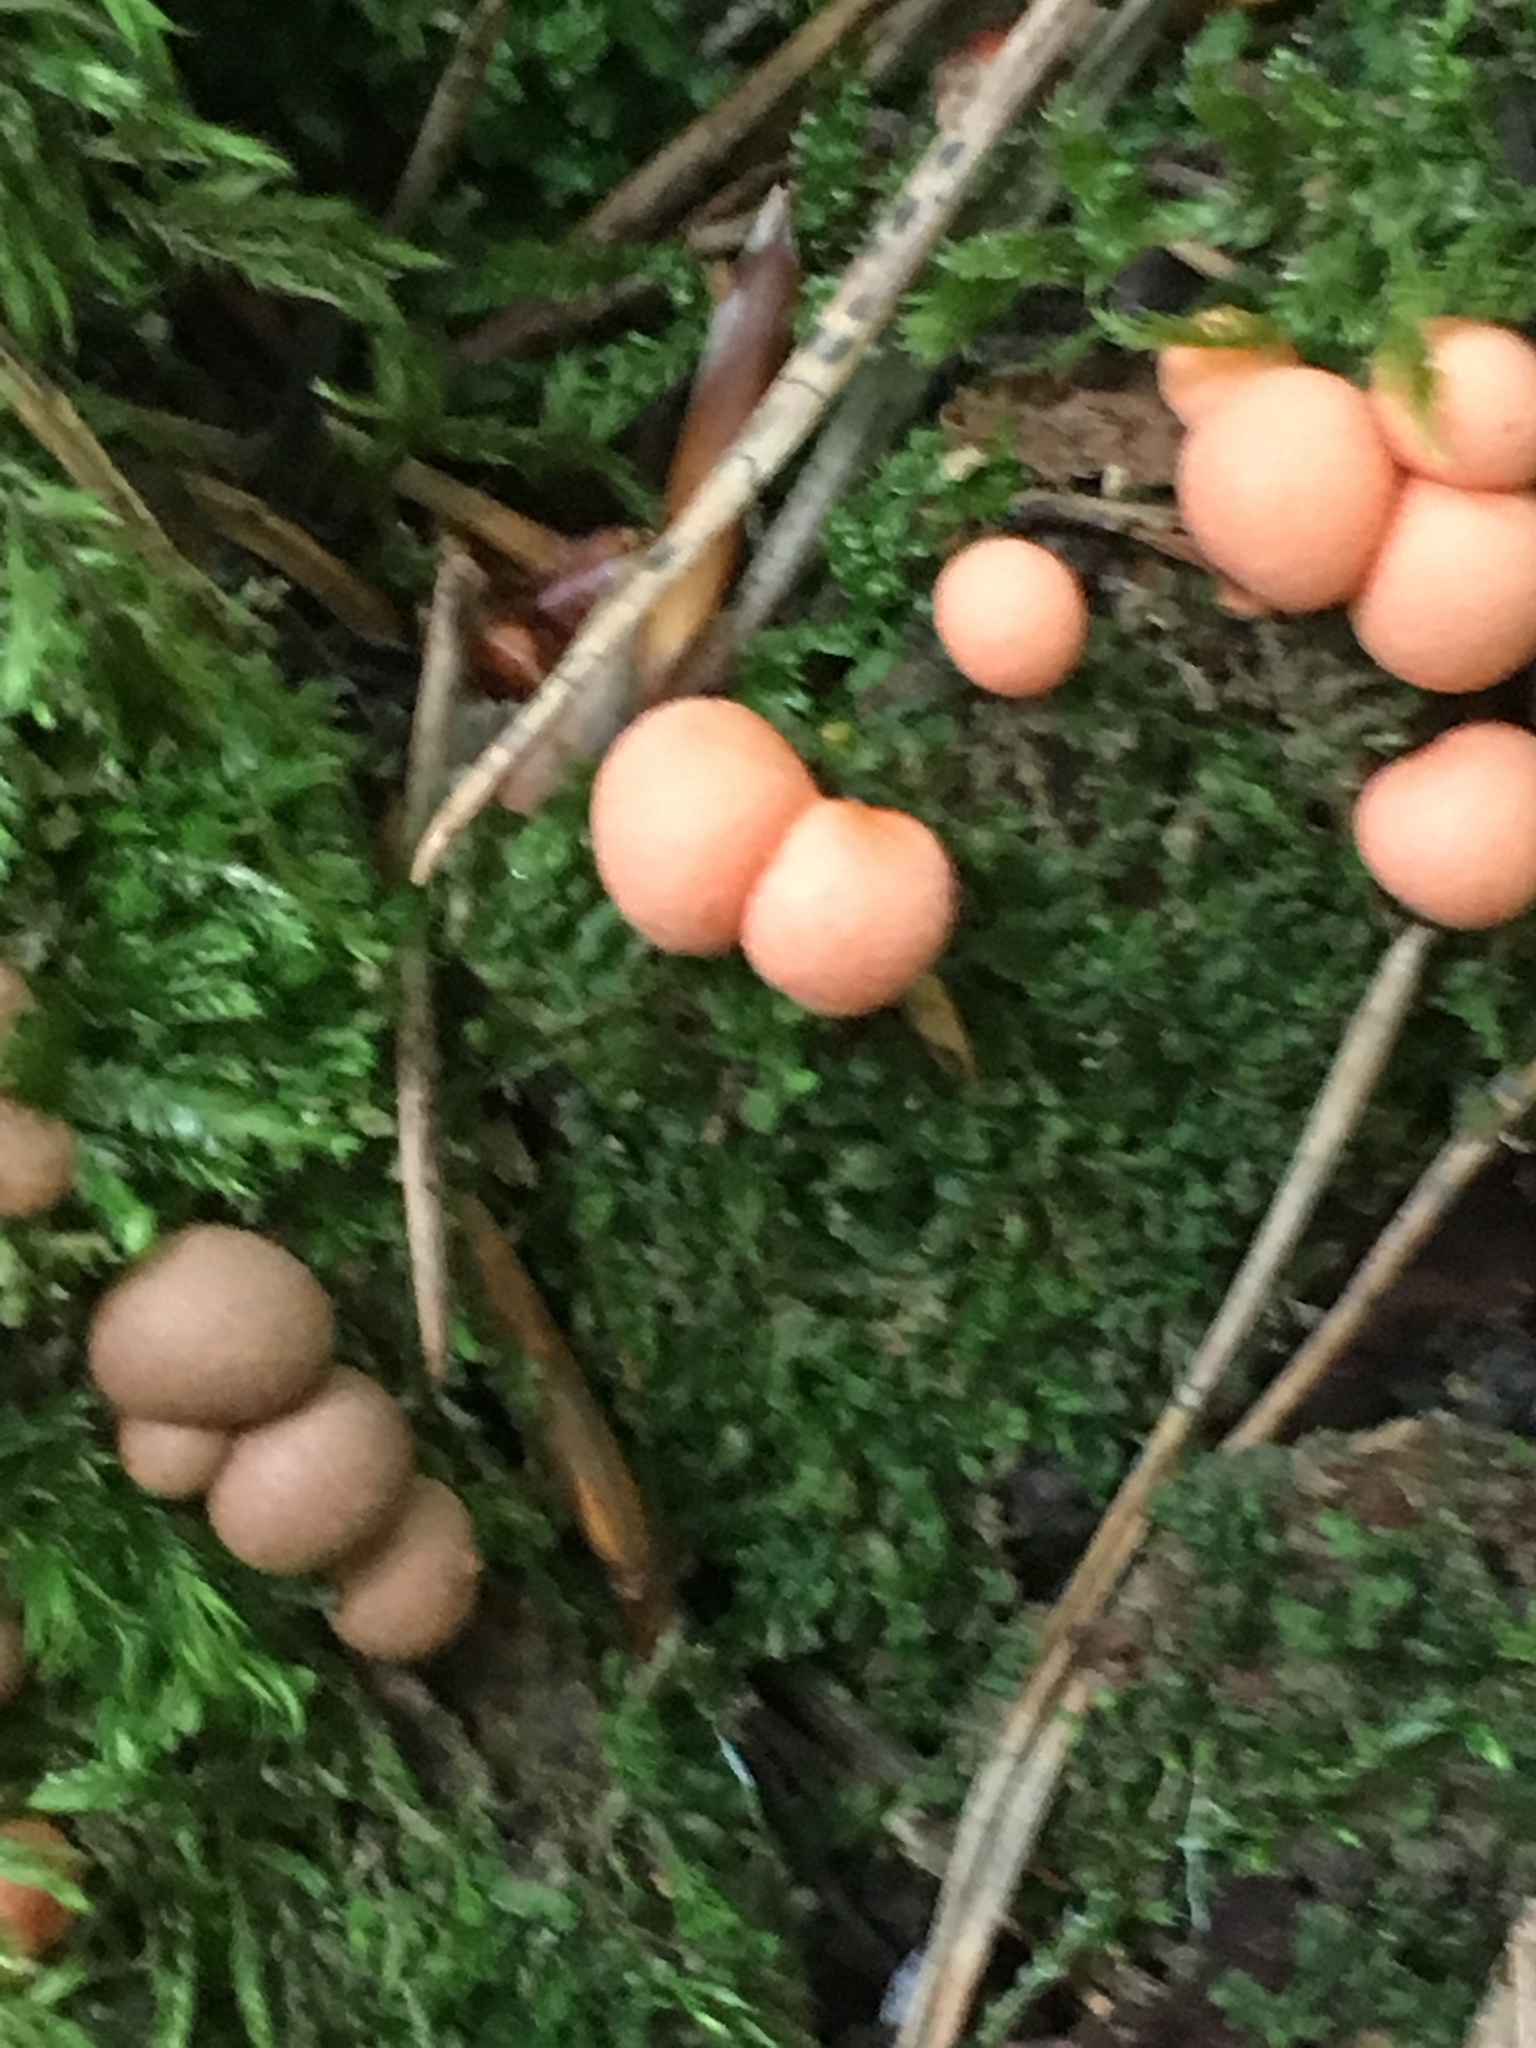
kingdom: Protozoa
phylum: Mycetozoa
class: Myxomycetes
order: Cribrariales
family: Tubiferaceae
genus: Lycogala
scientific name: Lycogala epidendrum
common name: Wolf's milk
